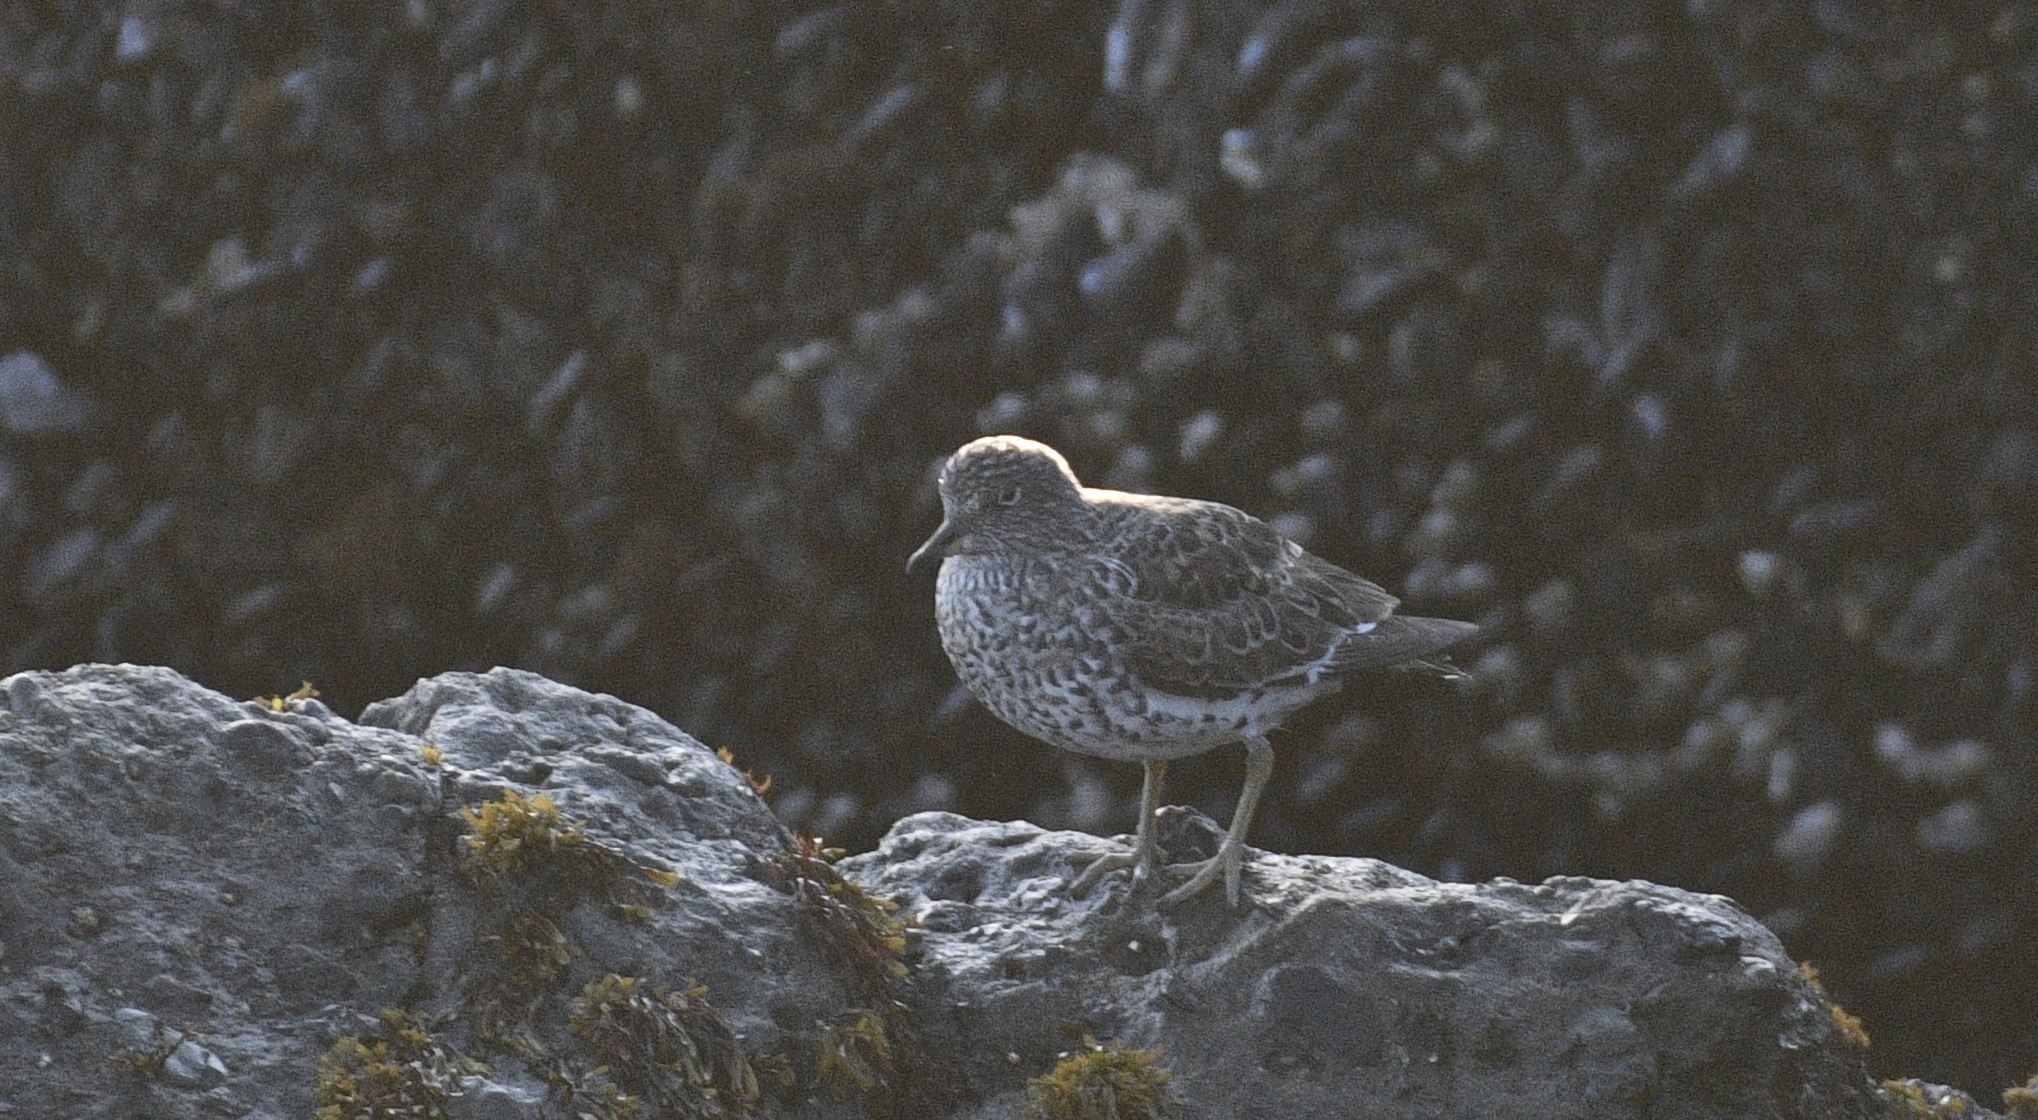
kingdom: Animalia
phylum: Chordata
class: Aves
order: Charadriiformes
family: Scolopacidae
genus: Calidris
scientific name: Calidris virgata
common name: Surfbird
